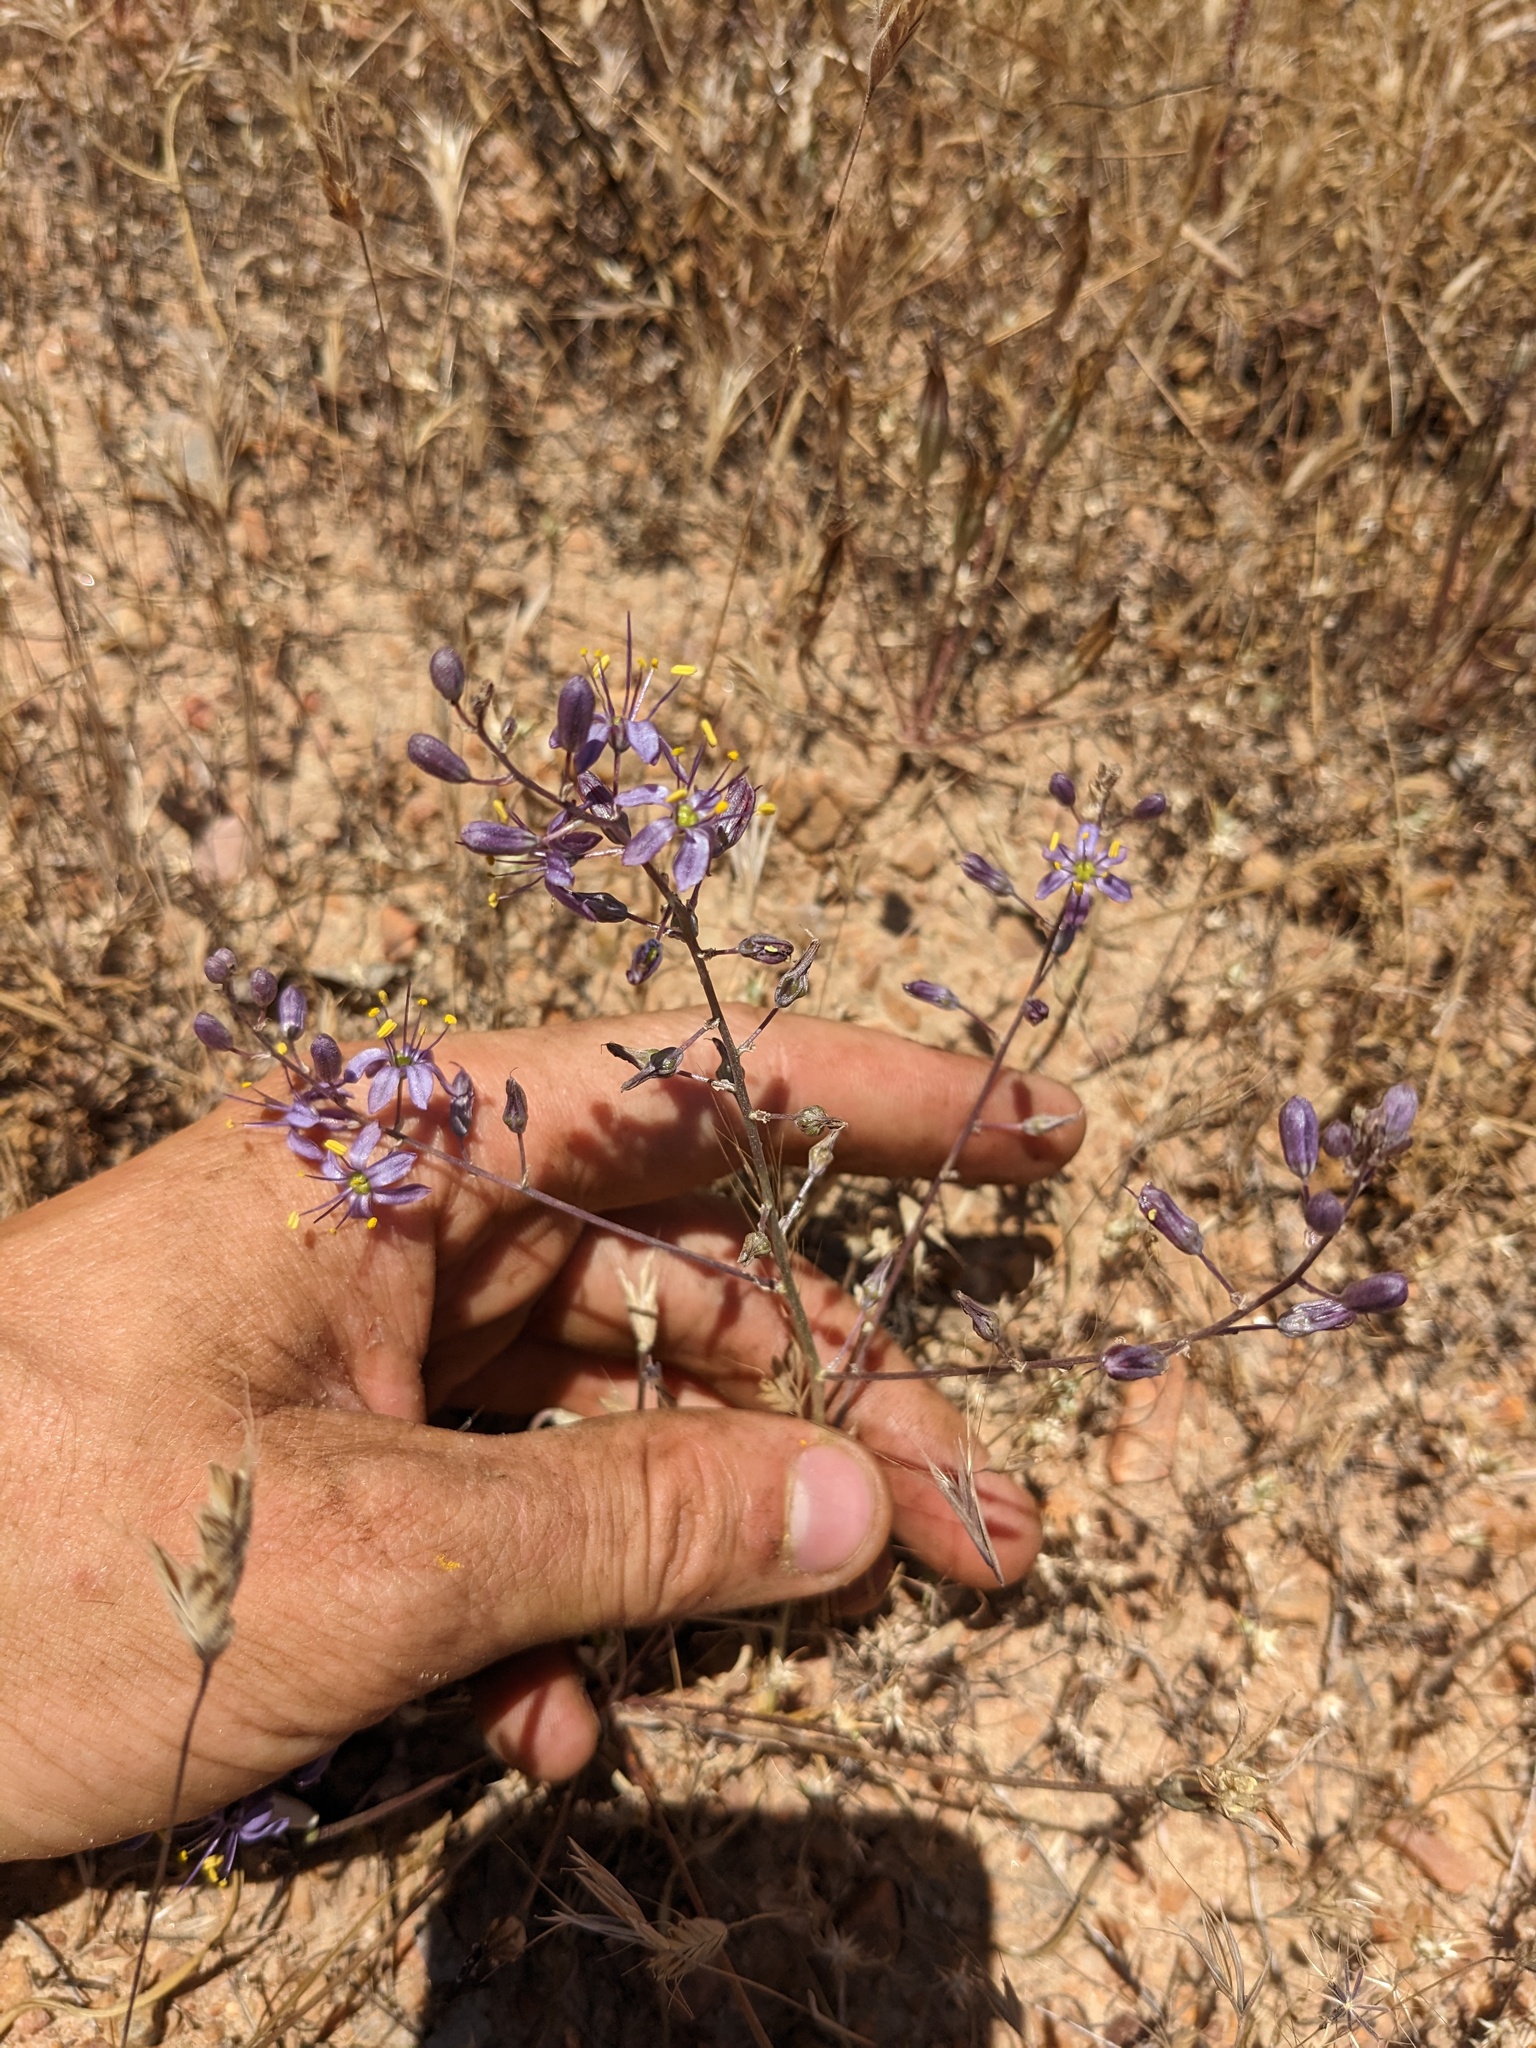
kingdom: Plantae
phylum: Tracheophyta
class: Liliopsida
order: Asparagales
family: Asparagaceae
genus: Hooveria
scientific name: Hooveria purpurea
